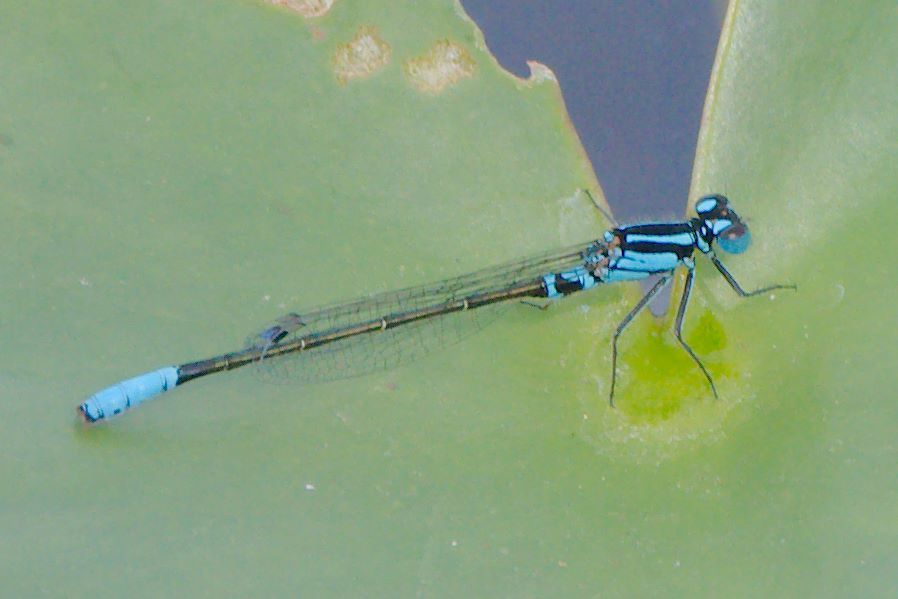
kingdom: Animalia
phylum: Arthropoda
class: Insecta
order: Odonata
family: Coenagrionidae
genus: Ischnura
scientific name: Ischnura kellicotti
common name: Lilypad forktail
